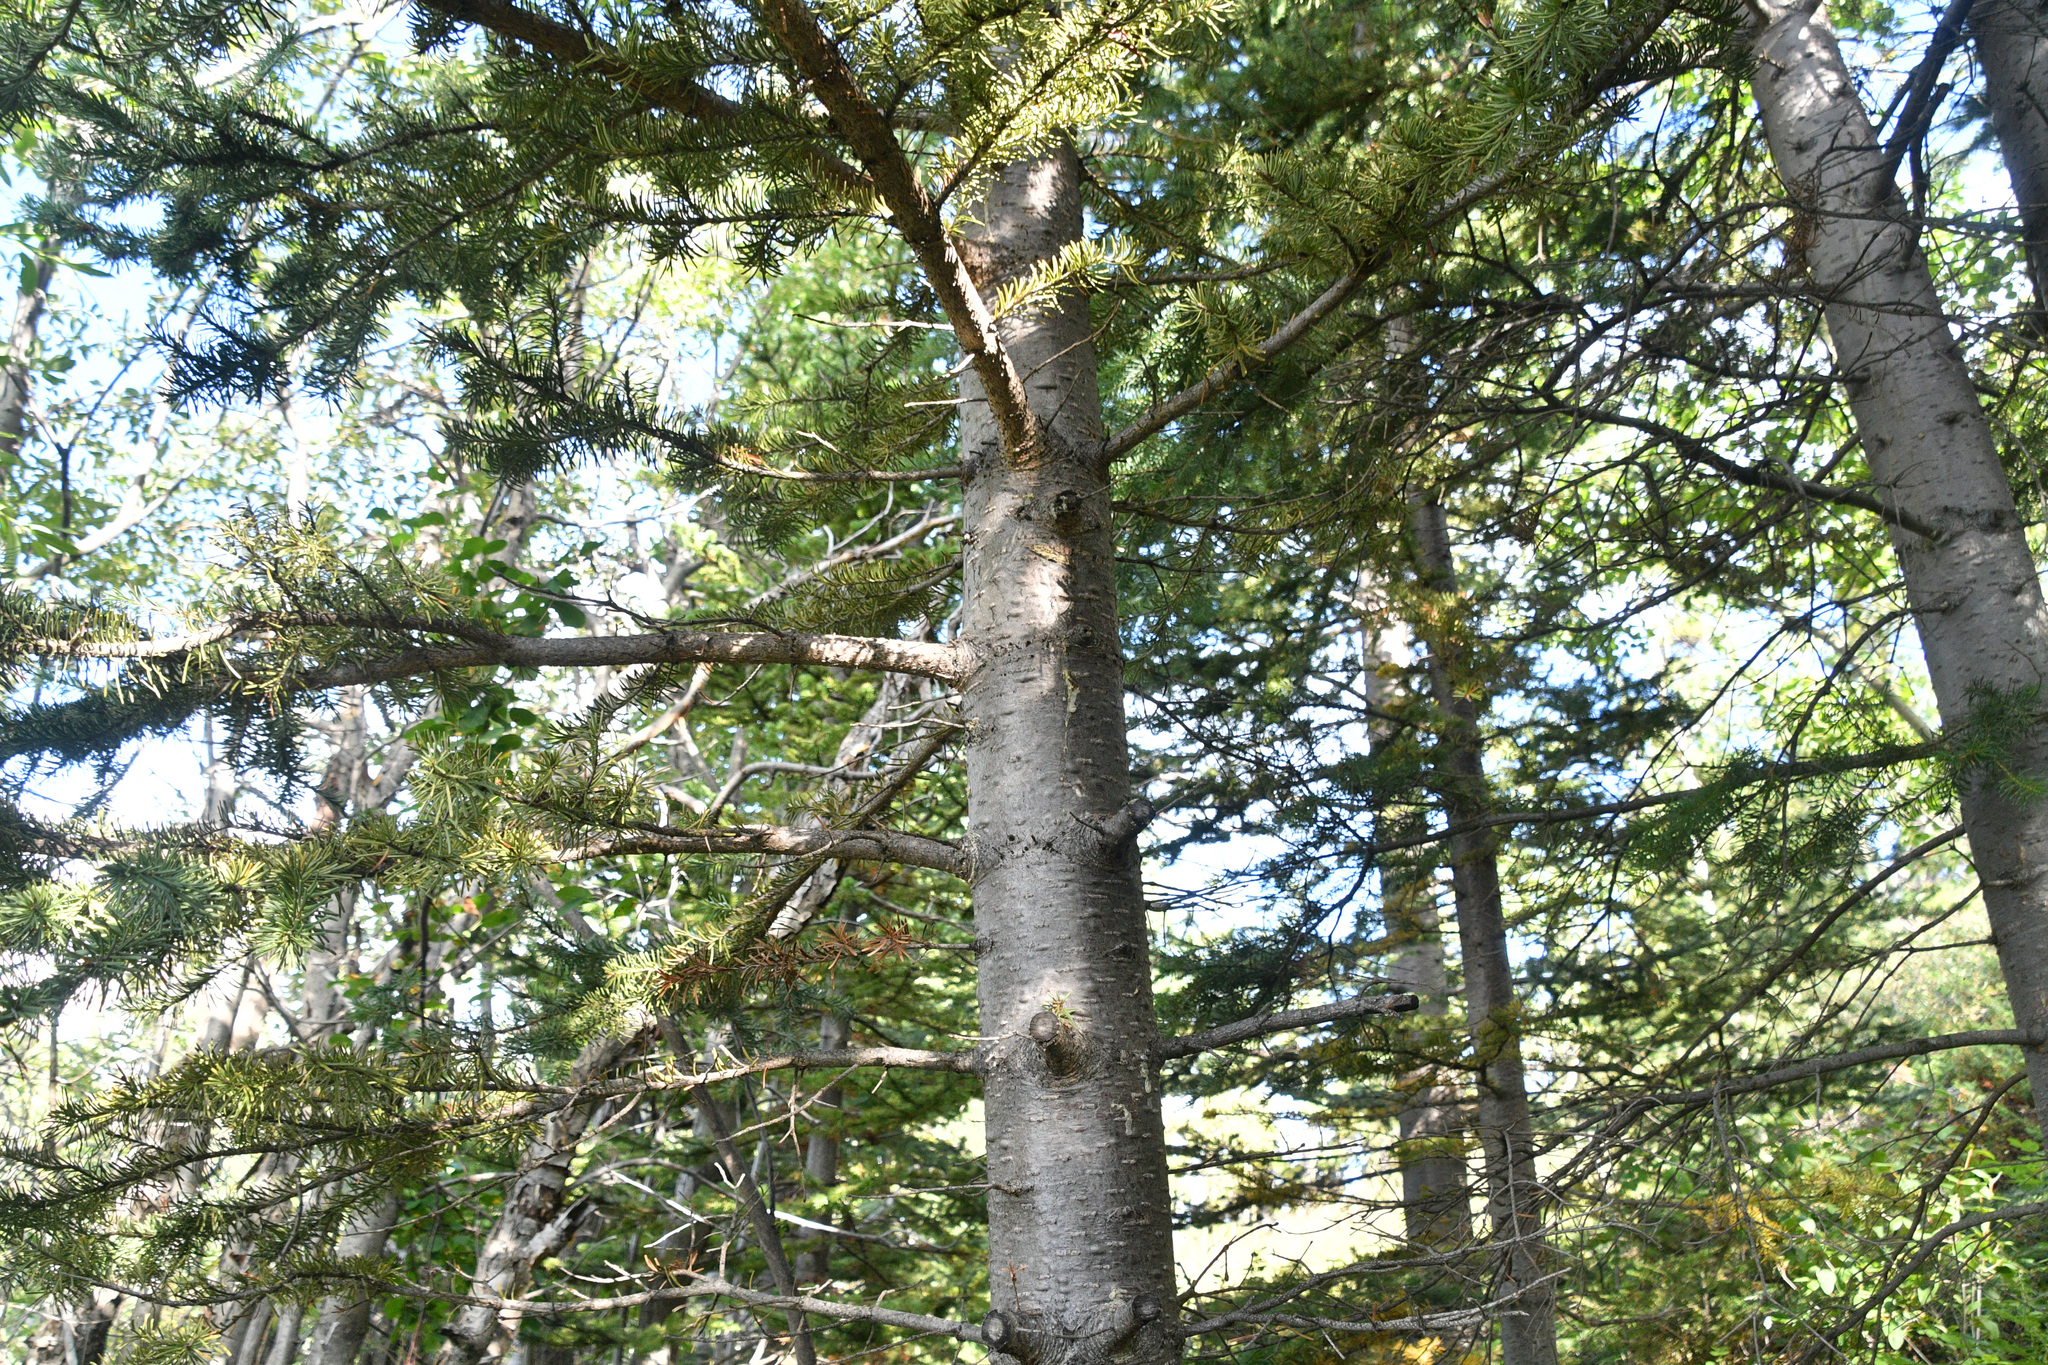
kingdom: Plantae
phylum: Tracheophyta
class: Pinopsida
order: Pinales
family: Pinaceae
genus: Abies
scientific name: Abies lasiocarpa
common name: Subalpine fir
